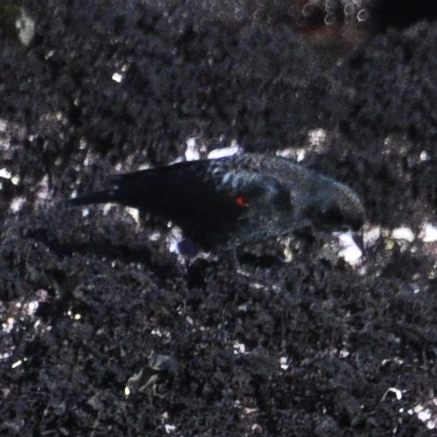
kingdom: Animalia
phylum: Chordata
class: Aves
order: Passeriformes
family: Icteridae
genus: Agelaius
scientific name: Agelaius phoeniceus
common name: Red-winged blackbird
